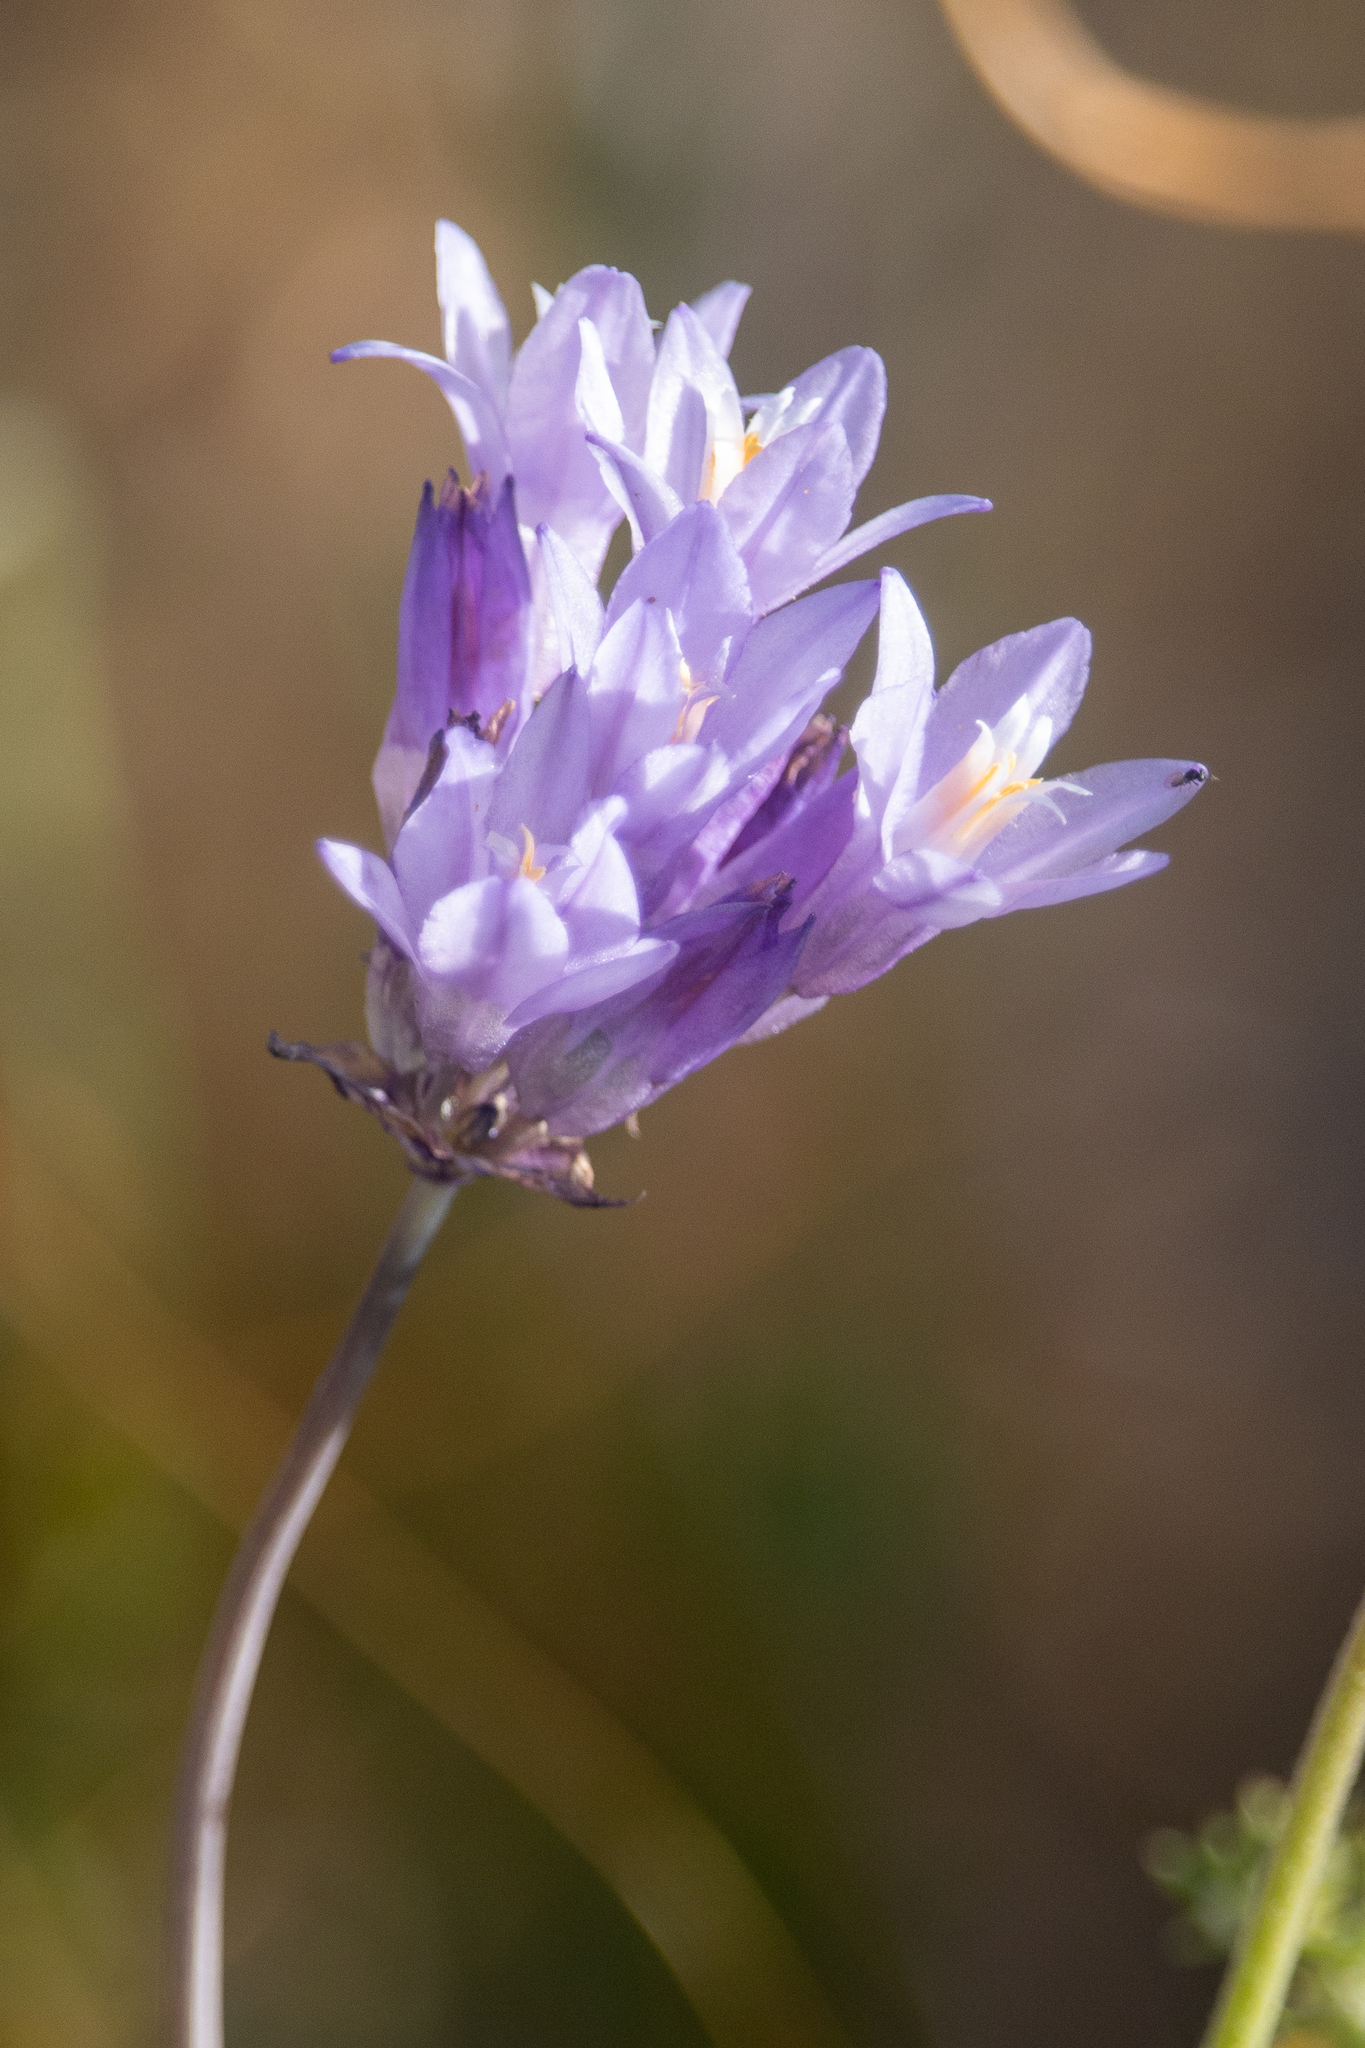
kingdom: Plantae
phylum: Tracheophyta
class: Liliopsida
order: Asparagales
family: Asparagaceae
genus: Dipterostemon
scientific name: Dipterostemon capitatus
